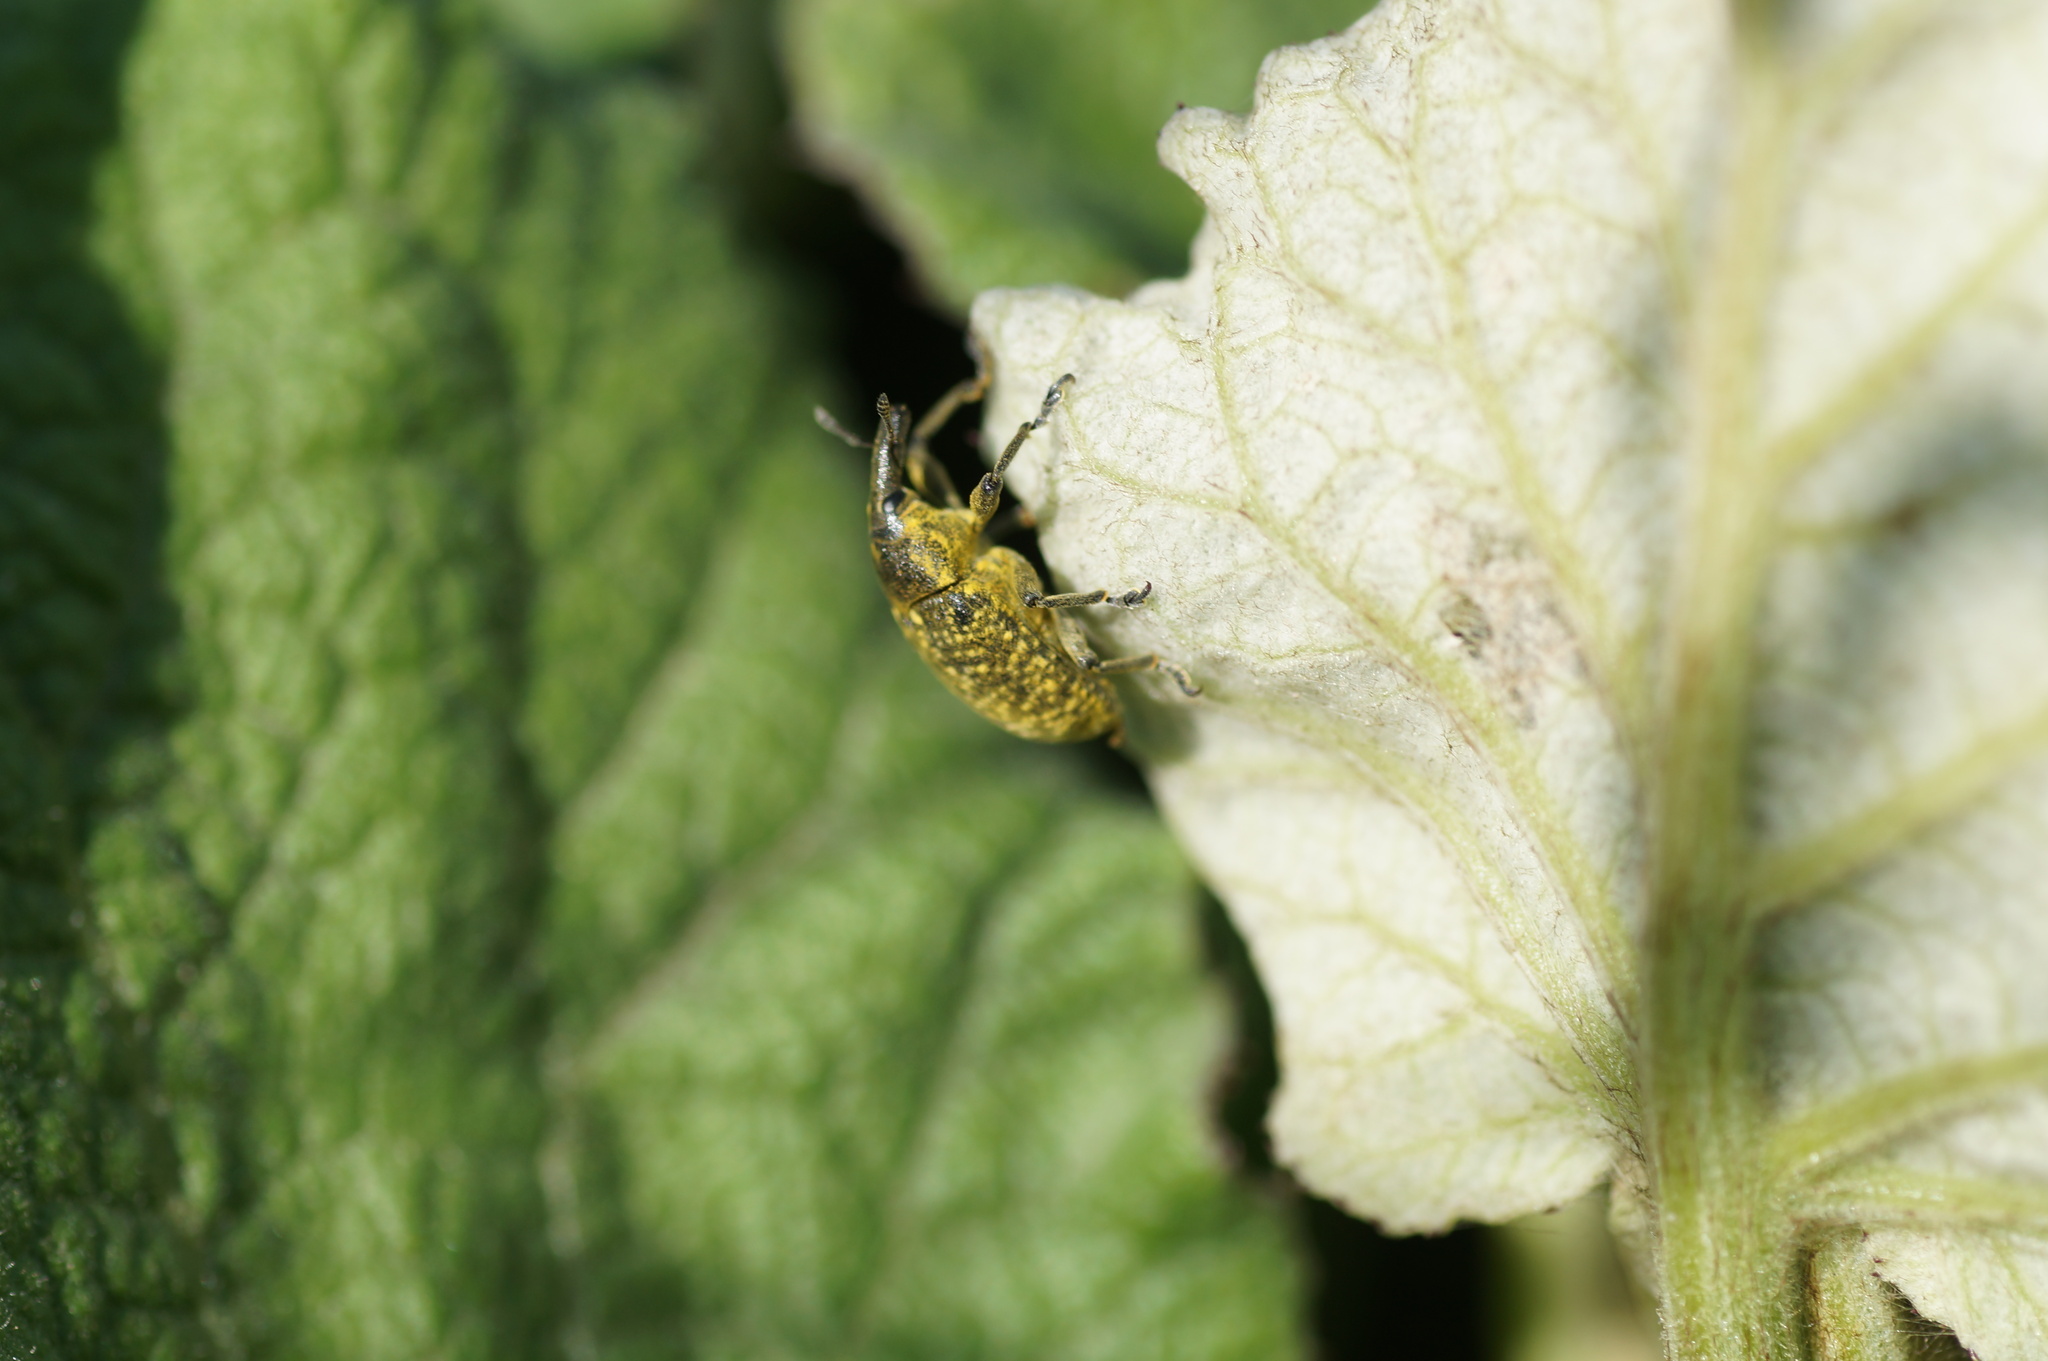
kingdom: Animalia
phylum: Arthropoda
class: Insecta
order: Coleoptera
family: Curculionidae
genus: Larinus
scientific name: Larinus sturnus
